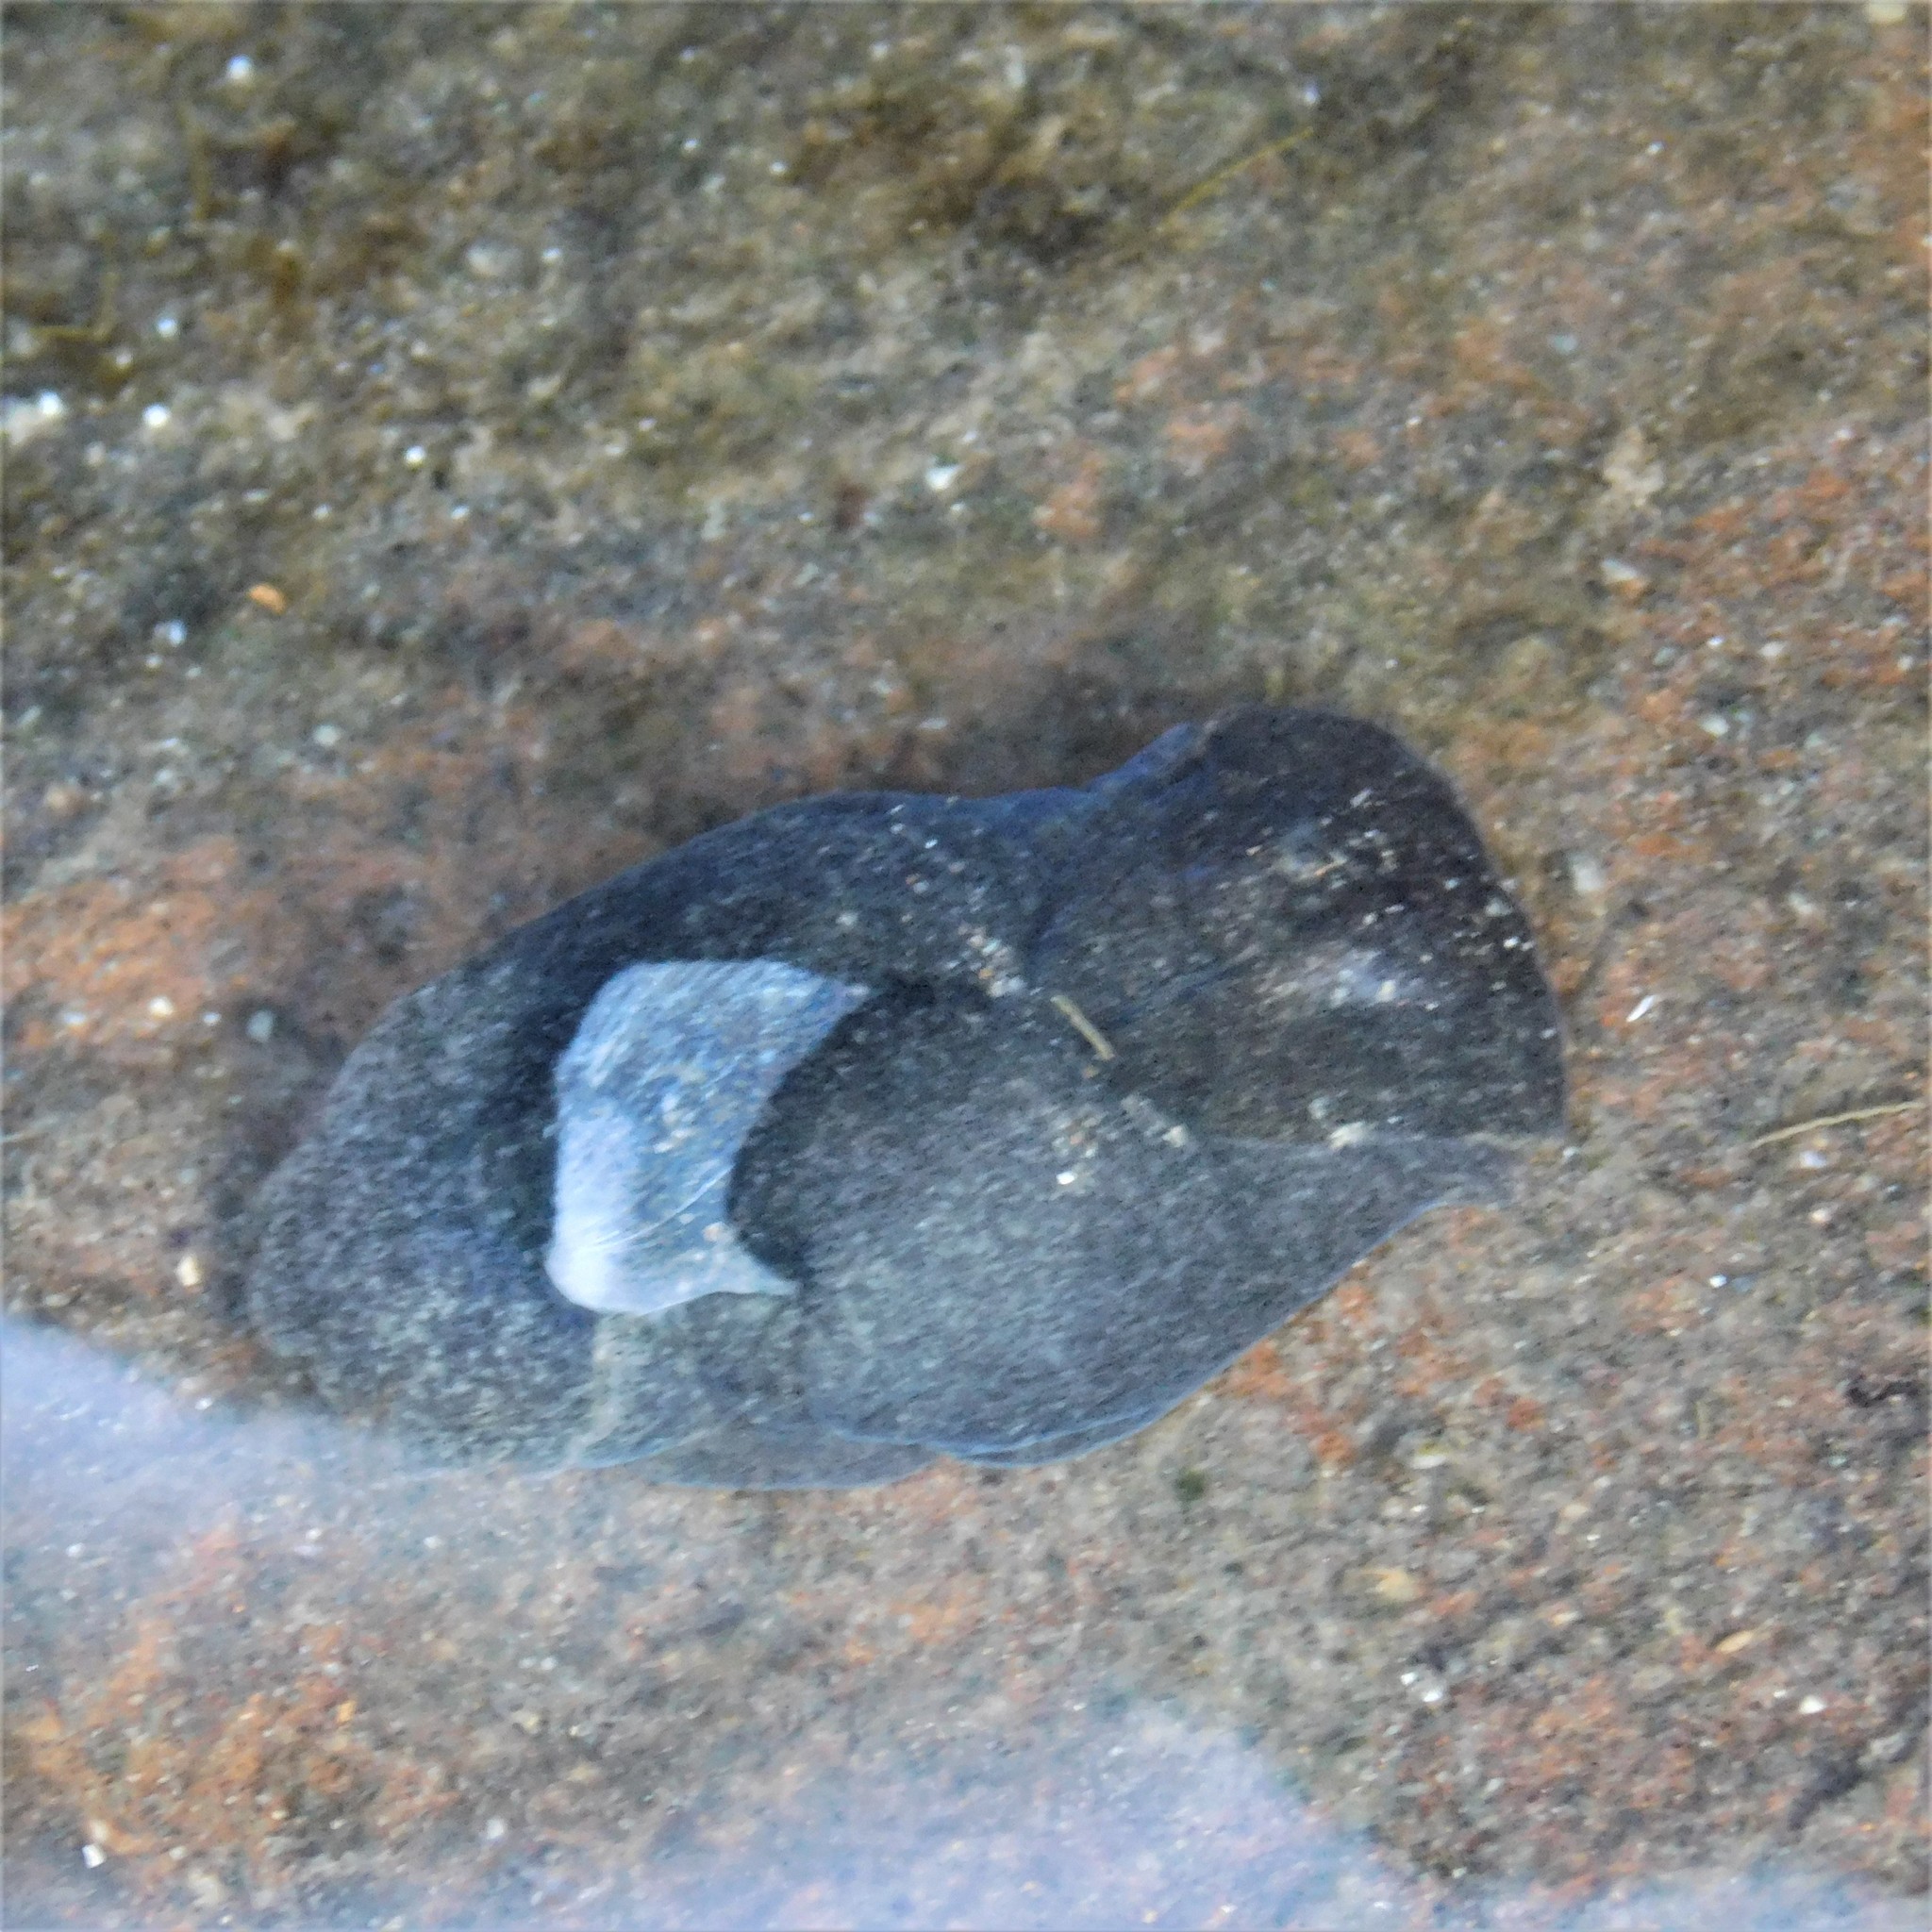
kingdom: Animalia
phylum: Mollusca
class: Gastropoda
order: Cephalaspidea
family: Haminoeidae
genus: Papawera
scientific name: Papawera zelandiae
